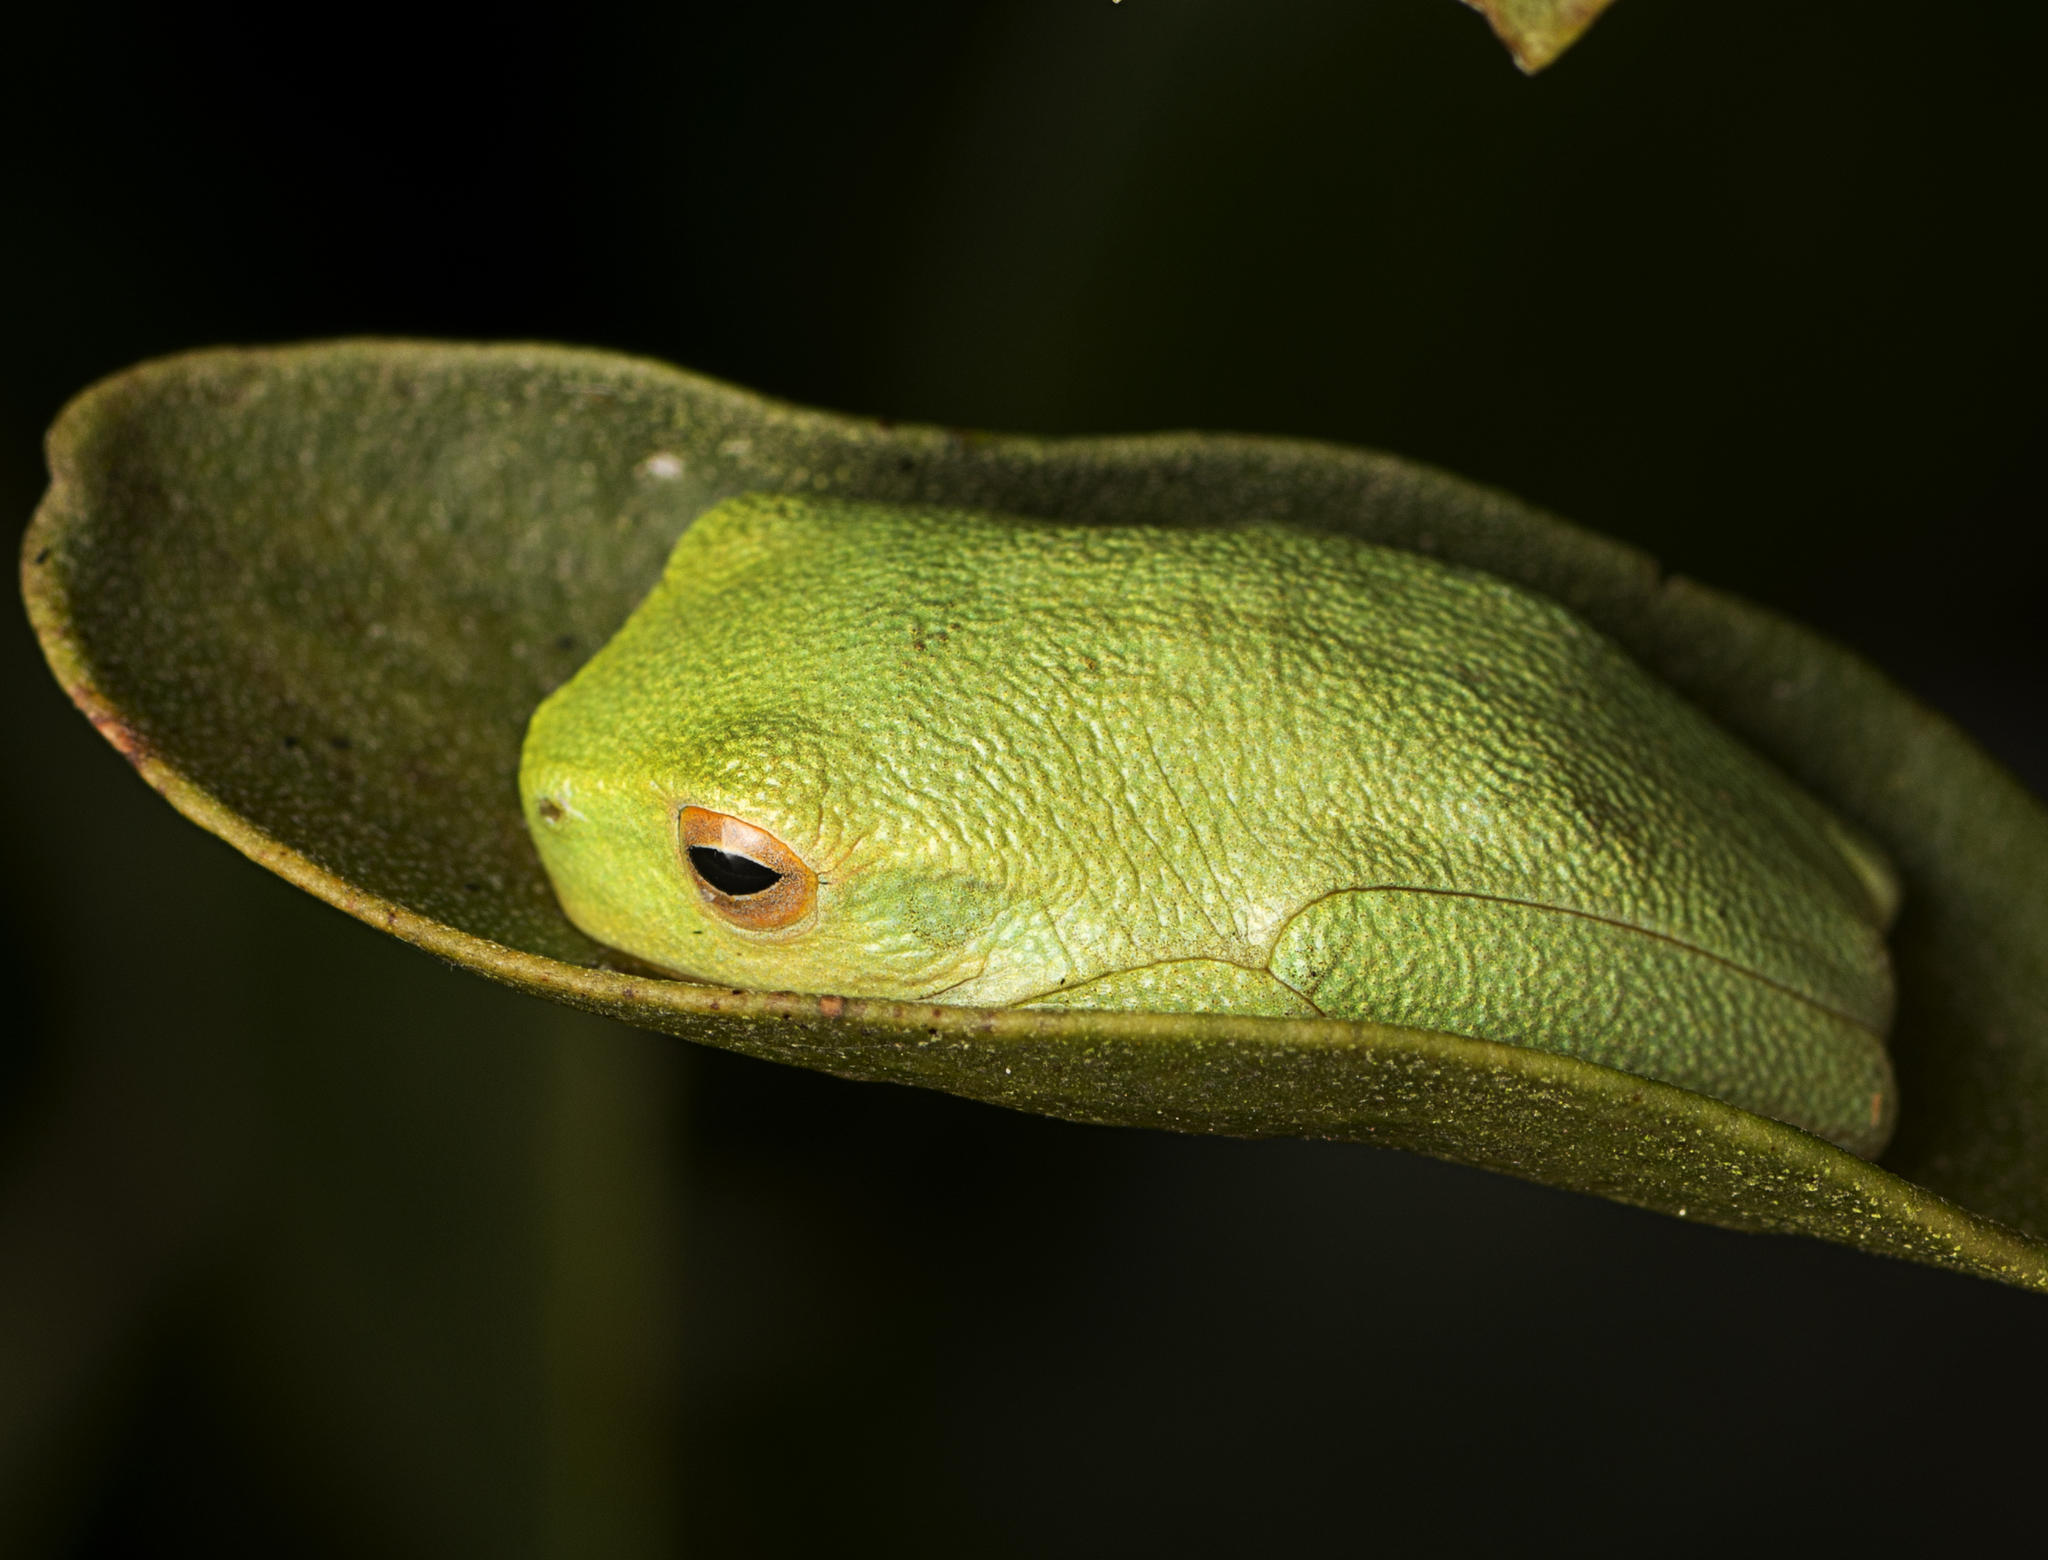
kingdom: Animalia
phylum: Chordata
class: Amphibia
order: Anura
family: Pelodryadidae
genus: Ranoidea
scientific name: Ranoidea gracilenta
